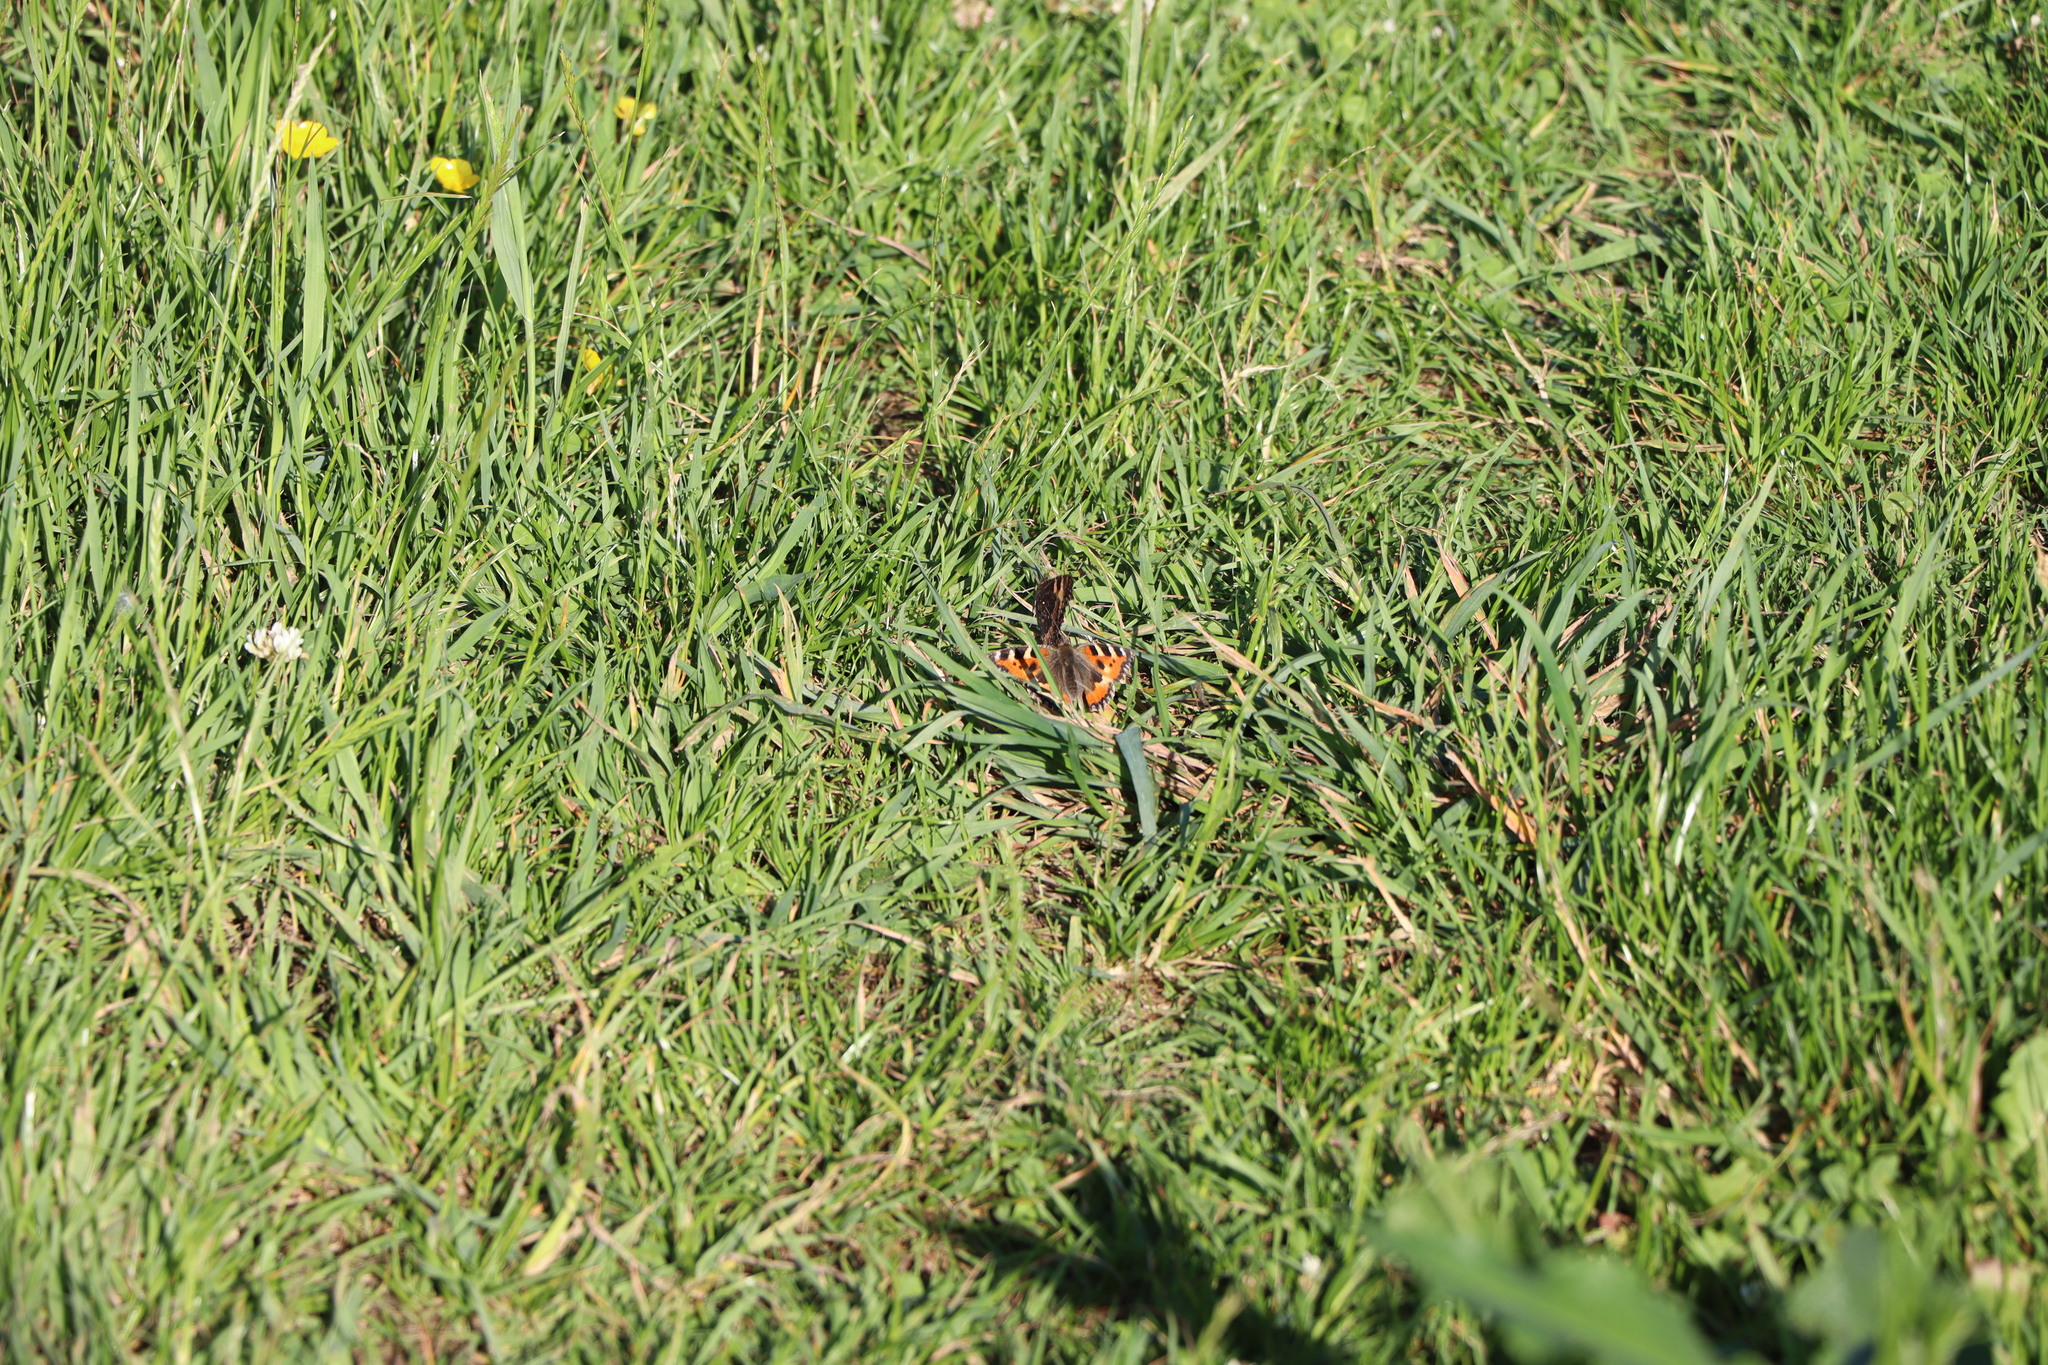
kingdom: Animalia
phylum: Arthropoda
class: Insecta
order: Lepidoptera
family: Nymphalidae
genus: Aglais
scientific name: Aglais urticae
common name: Small tortoiseshell
